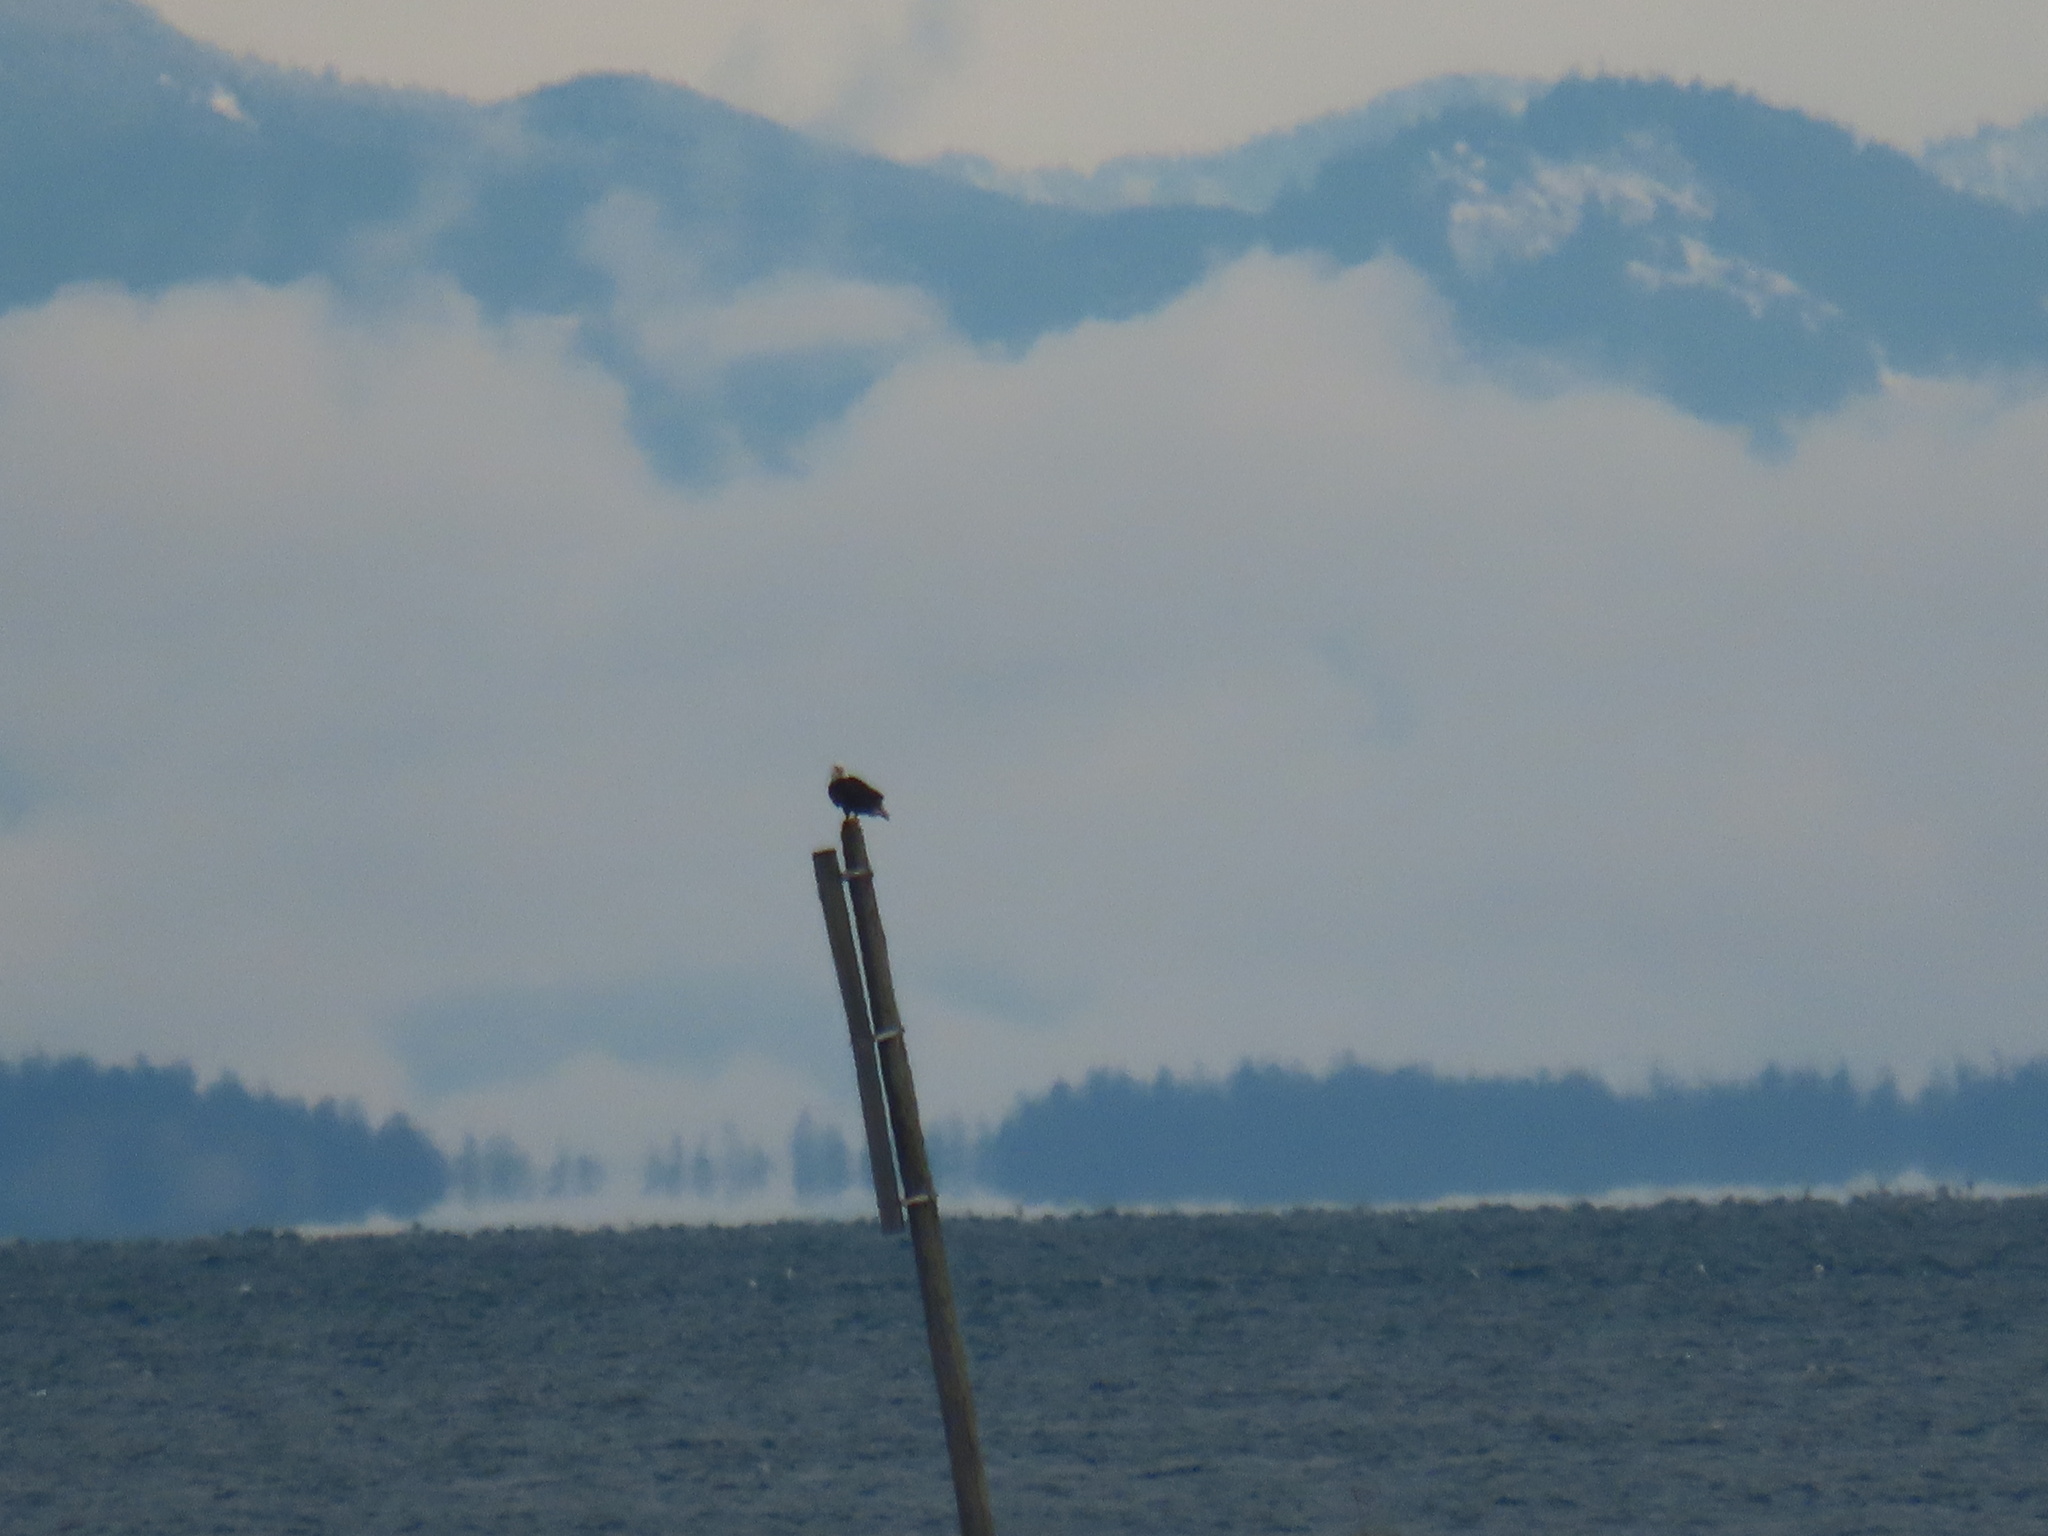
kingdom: Animalia
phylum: Chordata
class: Aves
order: Accipitriformes
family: Accipitridae
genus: Haliaeetus
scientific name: Haliaeetus leucocephalus
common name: Bald eagle
